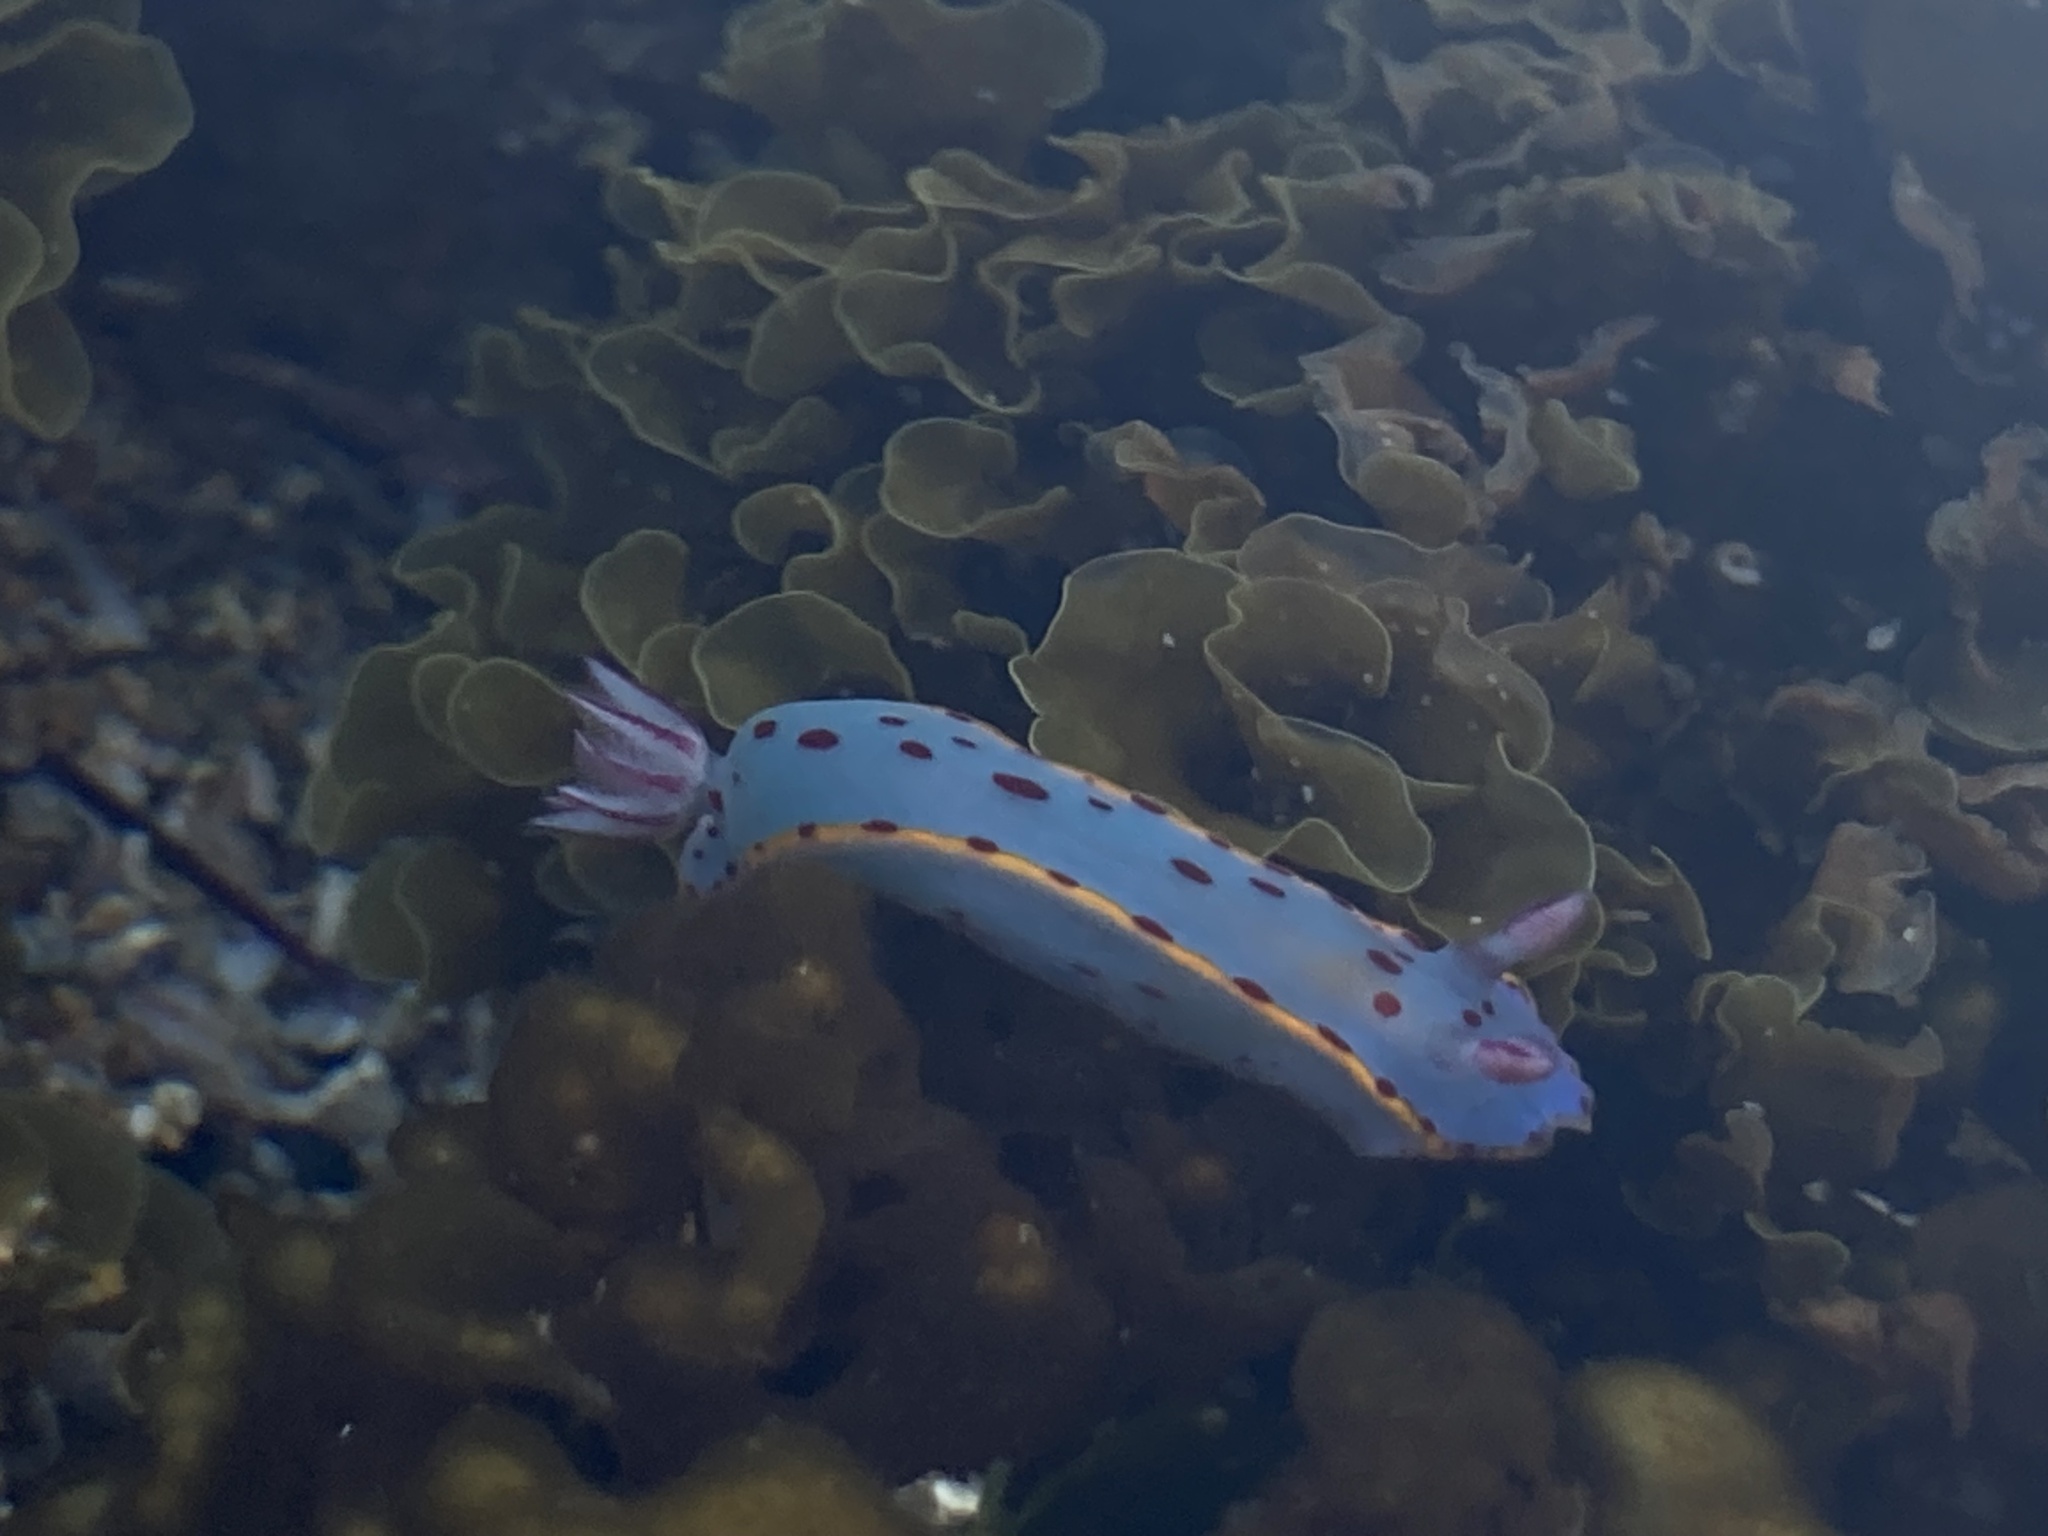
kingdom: Animalia
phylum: Mollusca
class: Gastropoda
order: Nudibranchia
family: Chromodorididae
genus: Hypselodoris
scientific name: Hypselodoris bennetti
